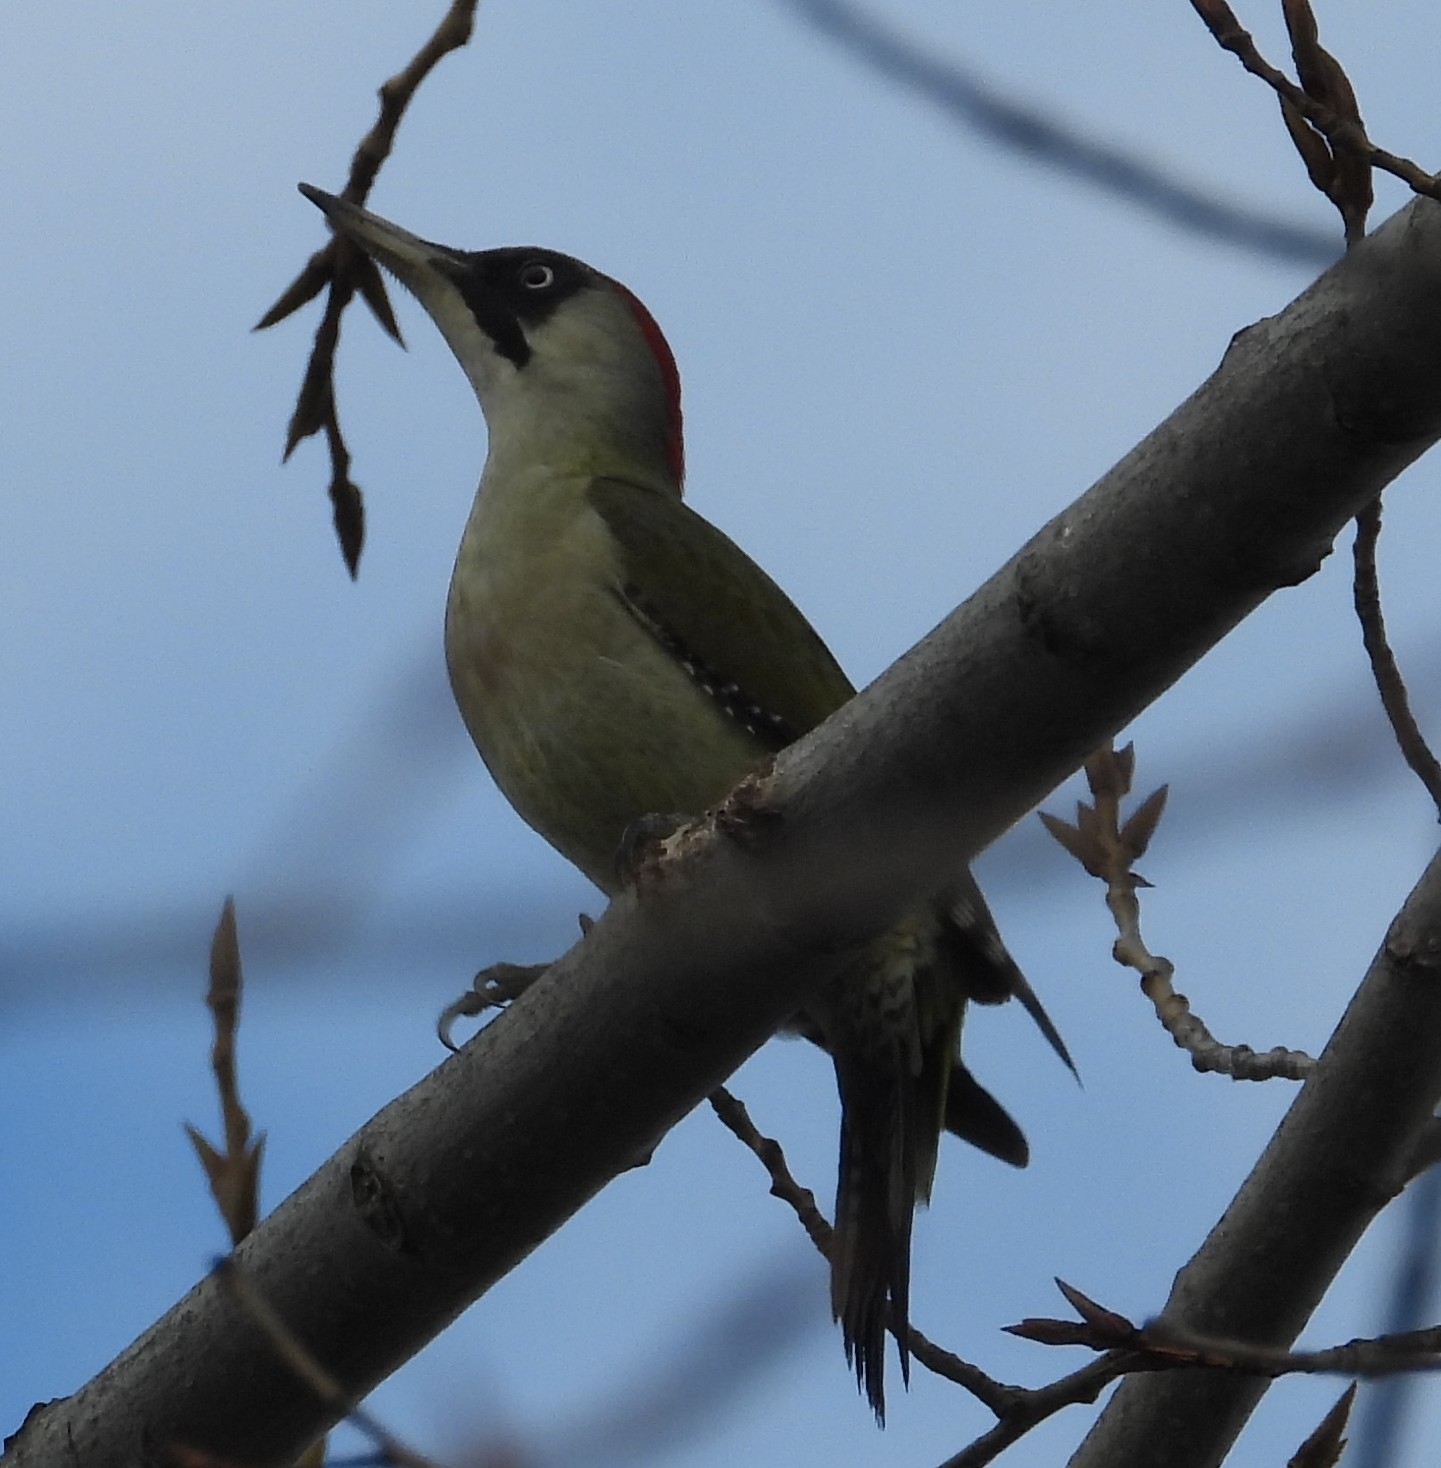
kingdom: Animalia
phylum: Chordata
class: Aves
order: Piciformes
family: Picidae
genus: Picus
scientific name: Picus viridis
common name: European green woodpecker
